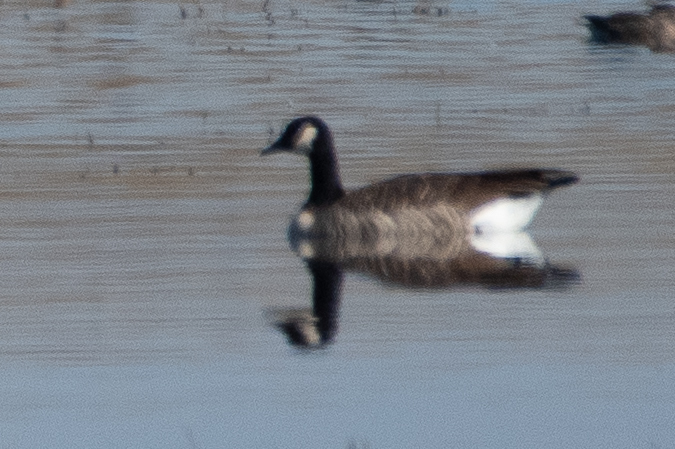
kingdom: Animalia
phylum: Chordata
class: Aves
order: Anseriformes
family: Anatidae
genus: Branta
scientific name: Branta canadensis
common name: Canada goose
